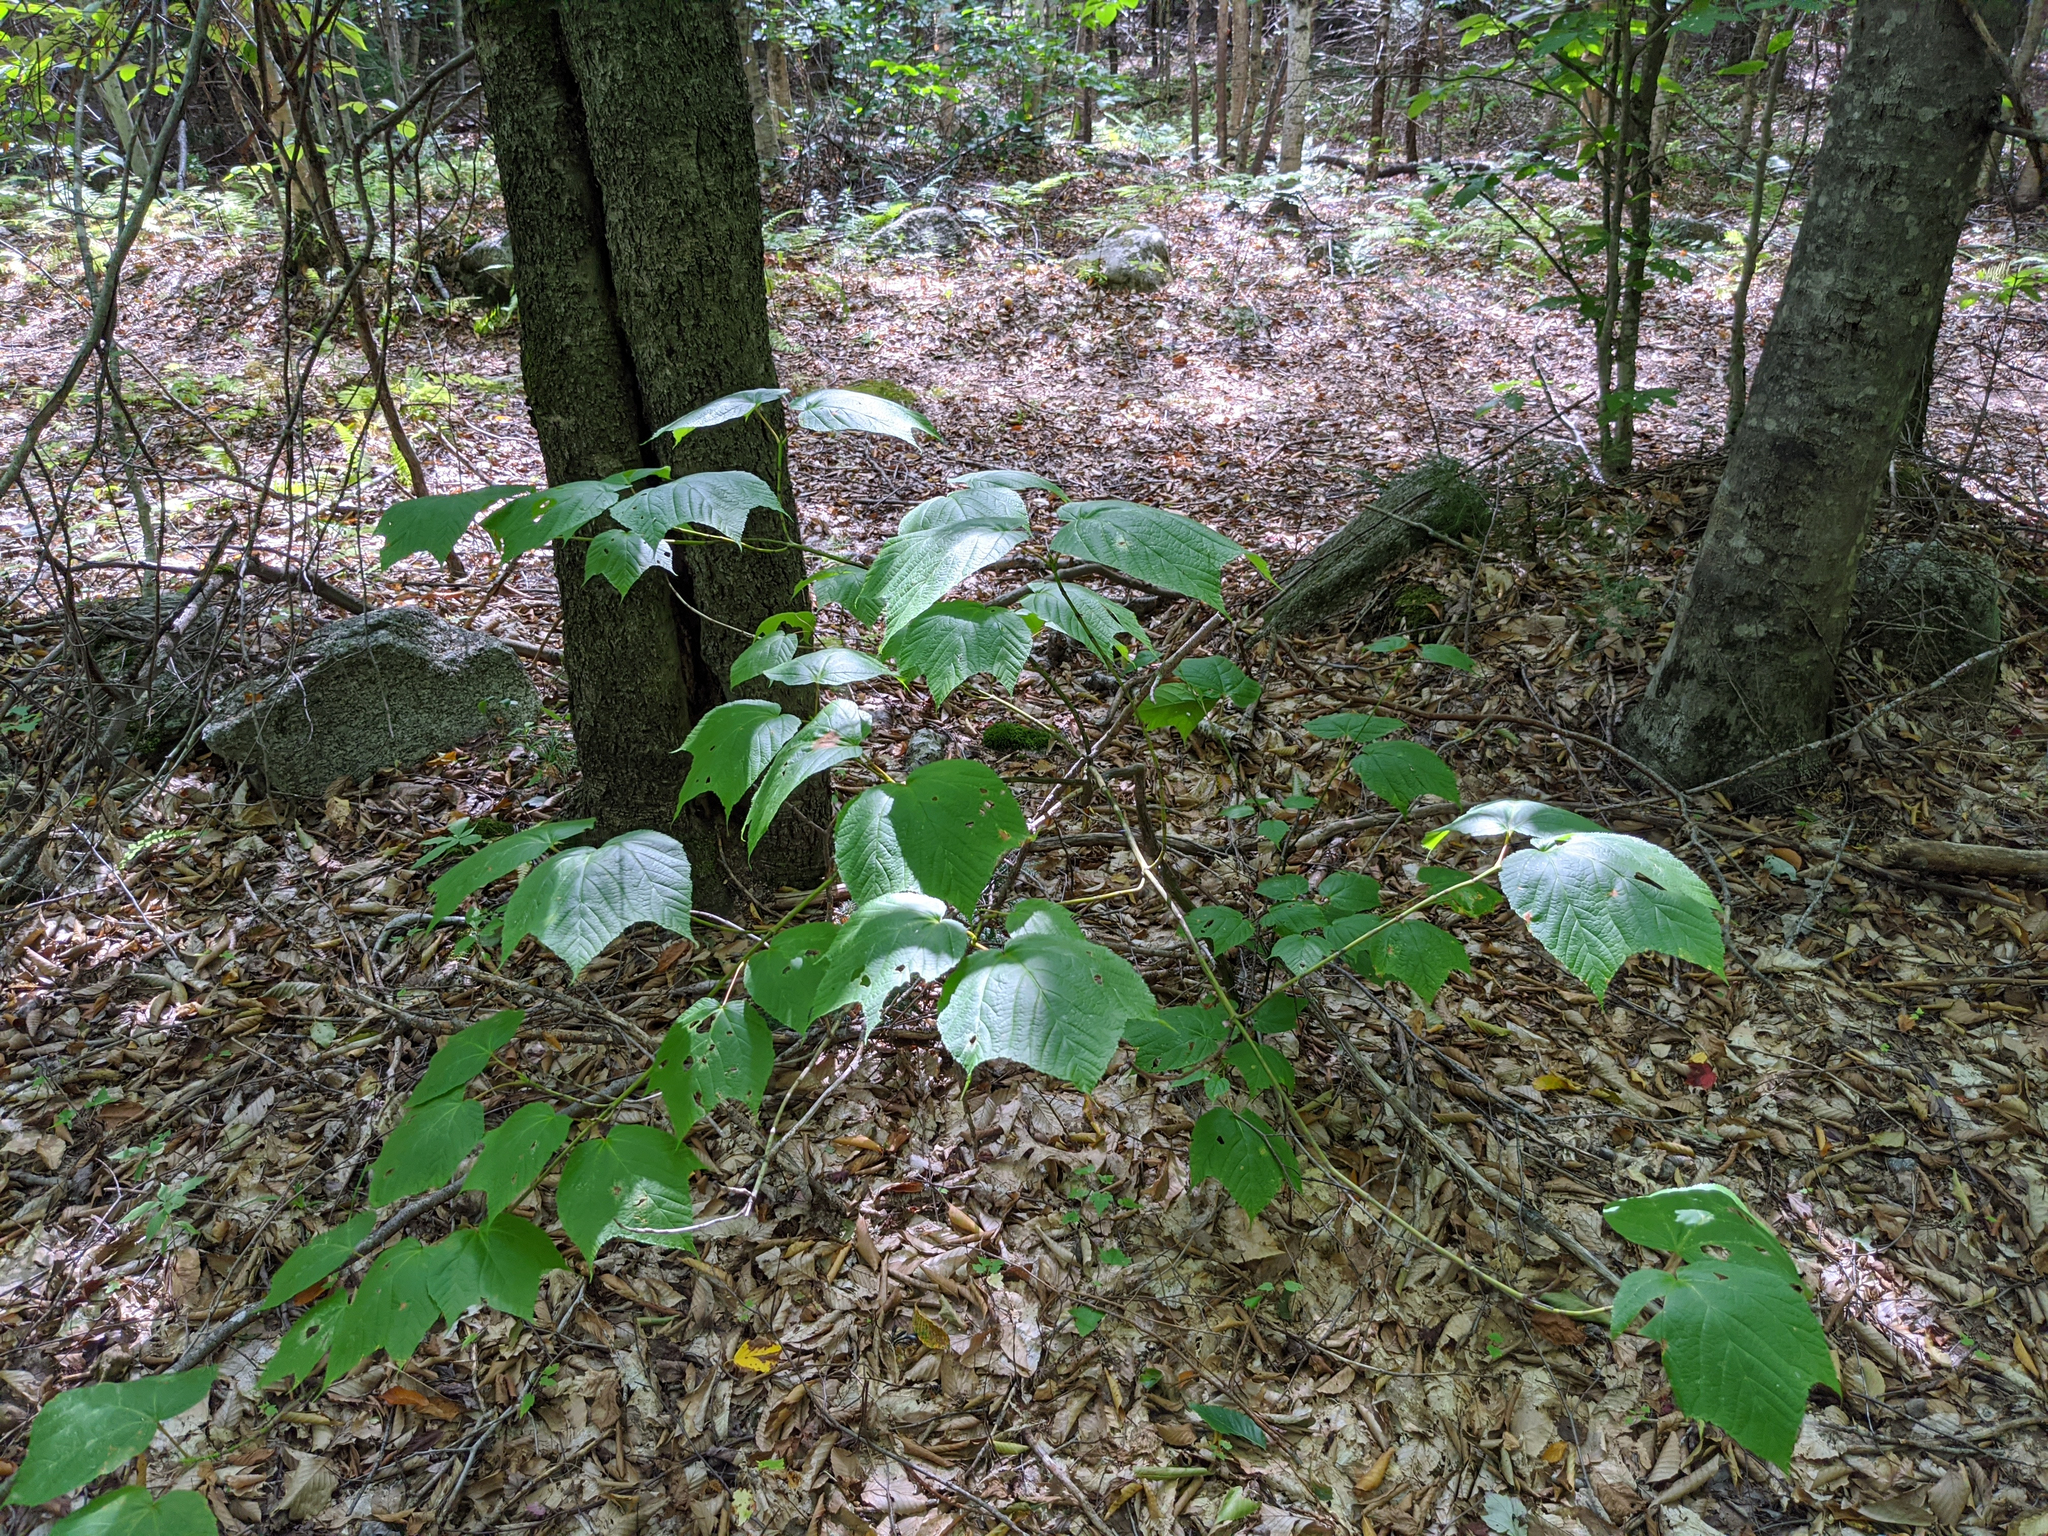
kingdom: Plantae
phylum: Tracheophyta
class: Magnoliopsida
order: Sapindales
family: Sapindaceae
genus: Acer
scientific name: Acer pensylvanicum
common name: Moosewood
